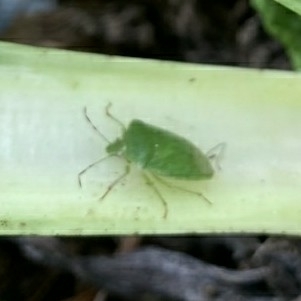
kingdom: Animalia
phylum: Arthropoda
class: Insecta
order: Hemiptera
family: Pentatomidae
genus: Nezara
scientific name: Nezara viridula
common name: Southern green stink bug
